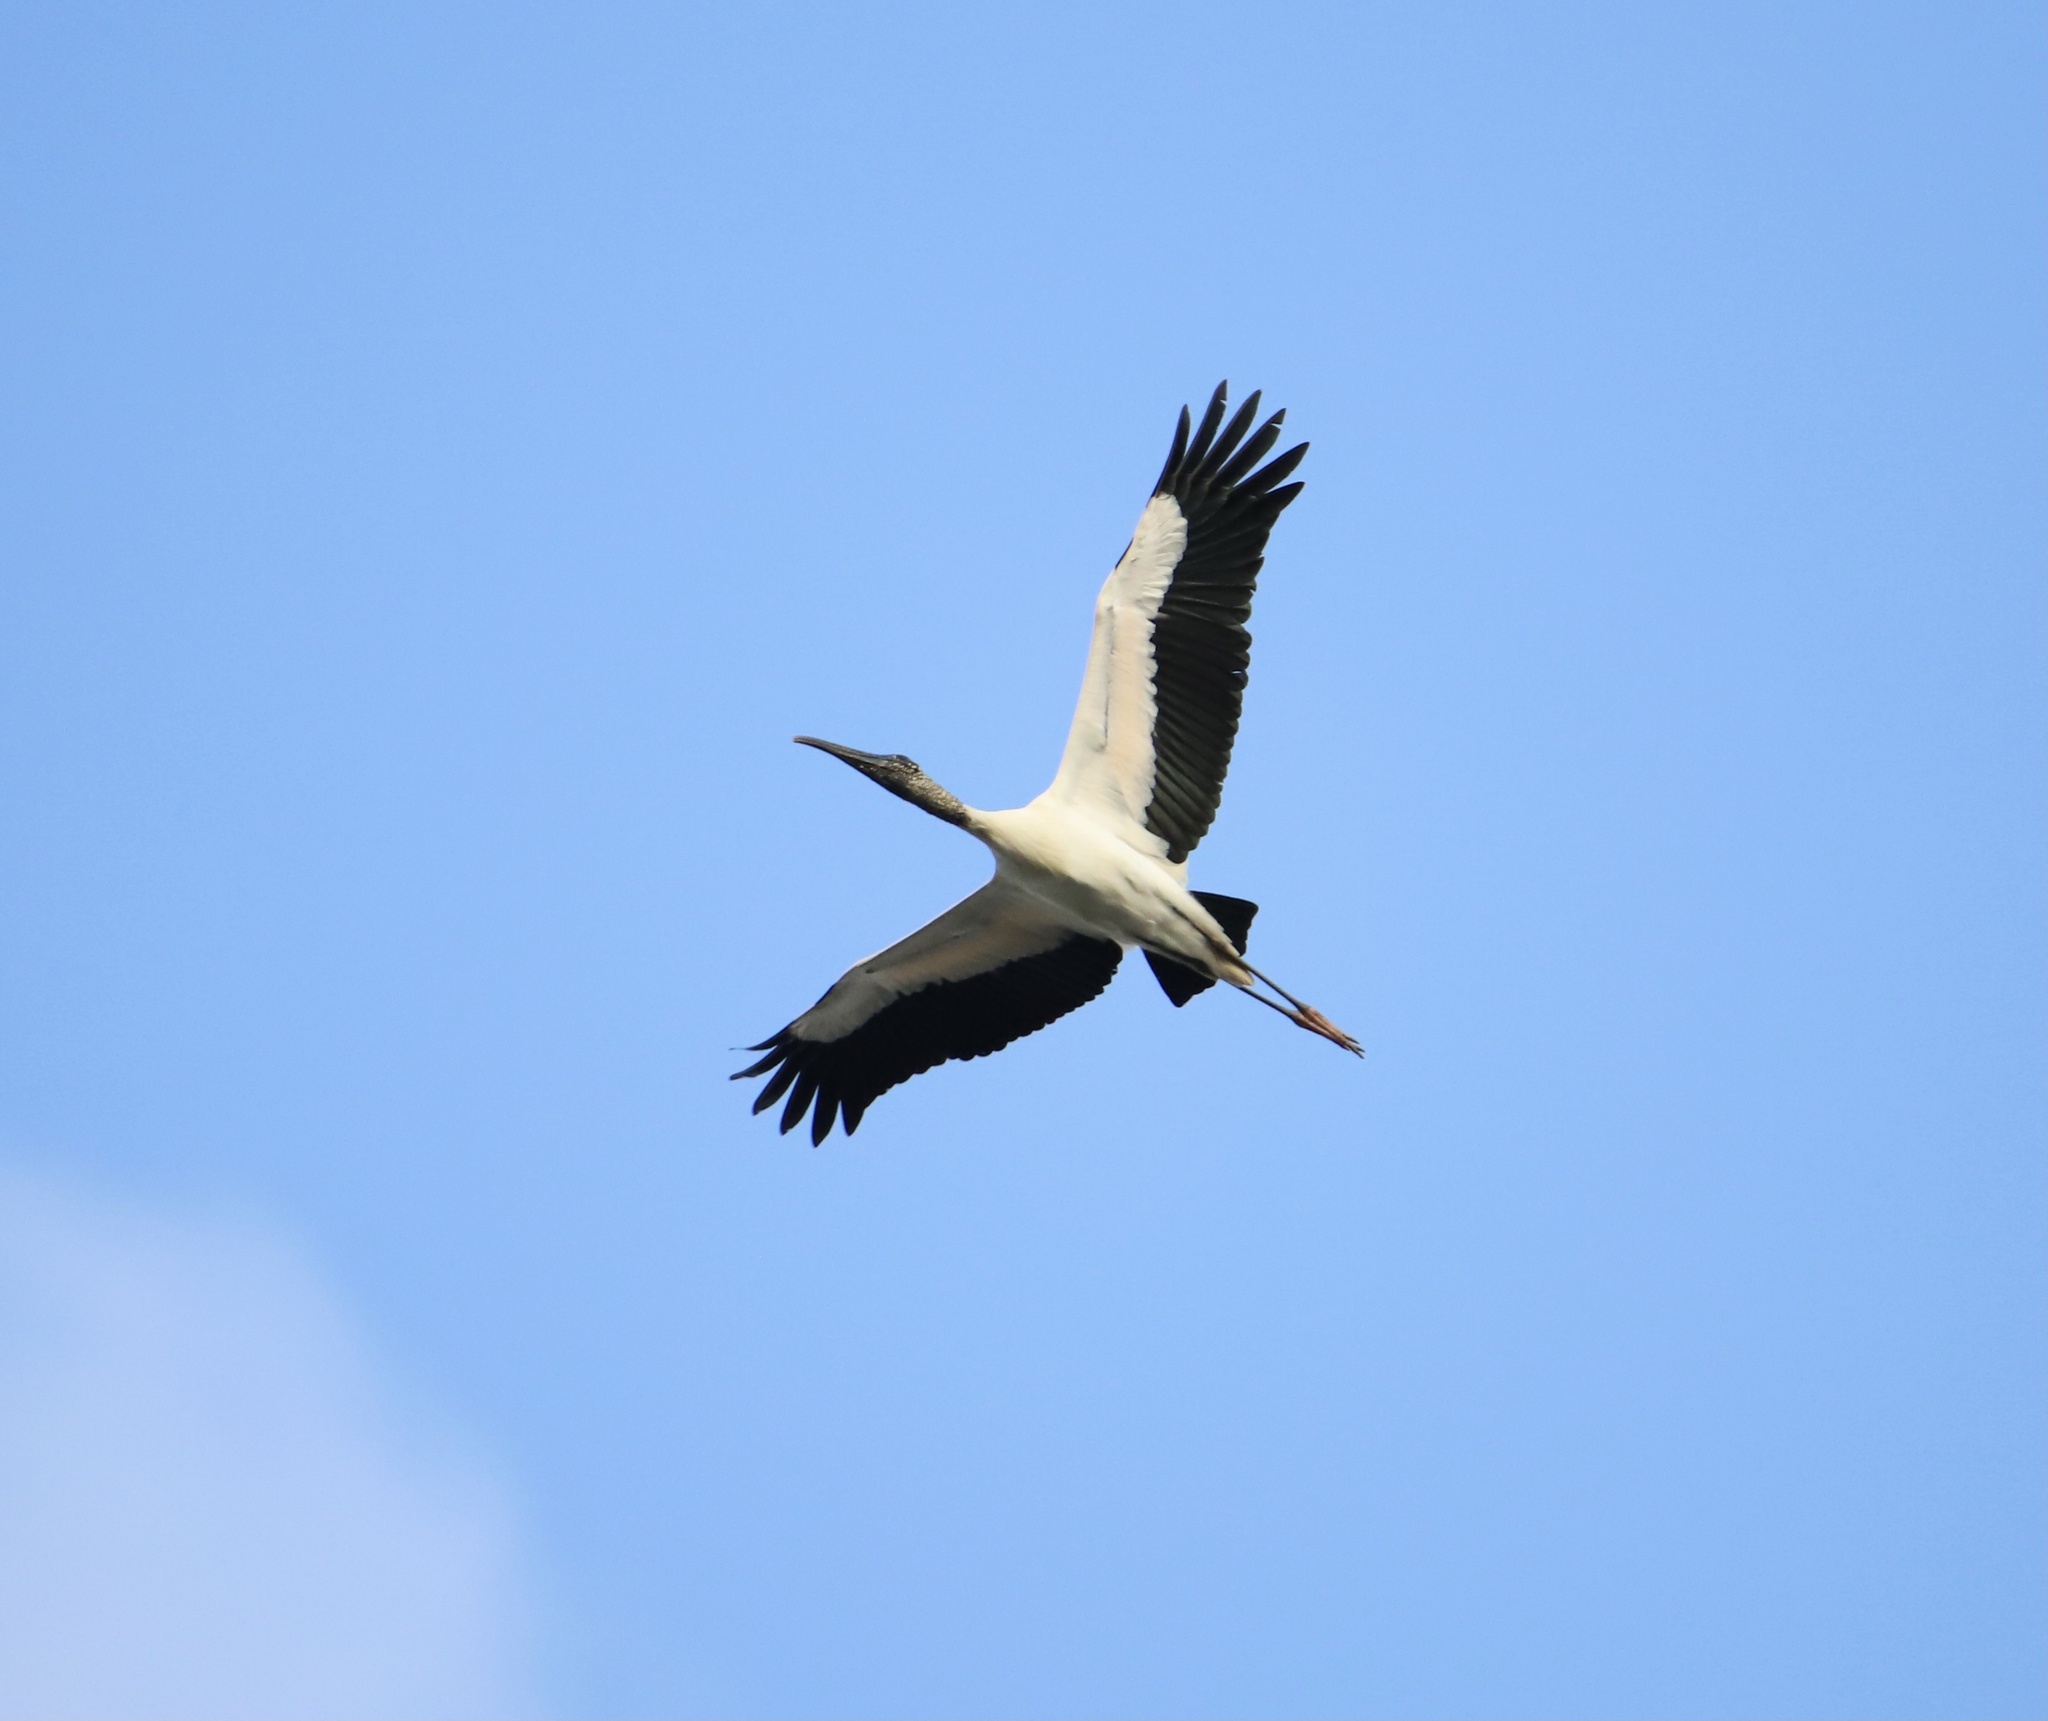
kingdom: Animalia
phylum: Chordata
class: Aves
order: Ciconiiformes
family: Ciconiidae
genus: Mycteria
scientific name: Mycteria americana
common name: Wood stork
